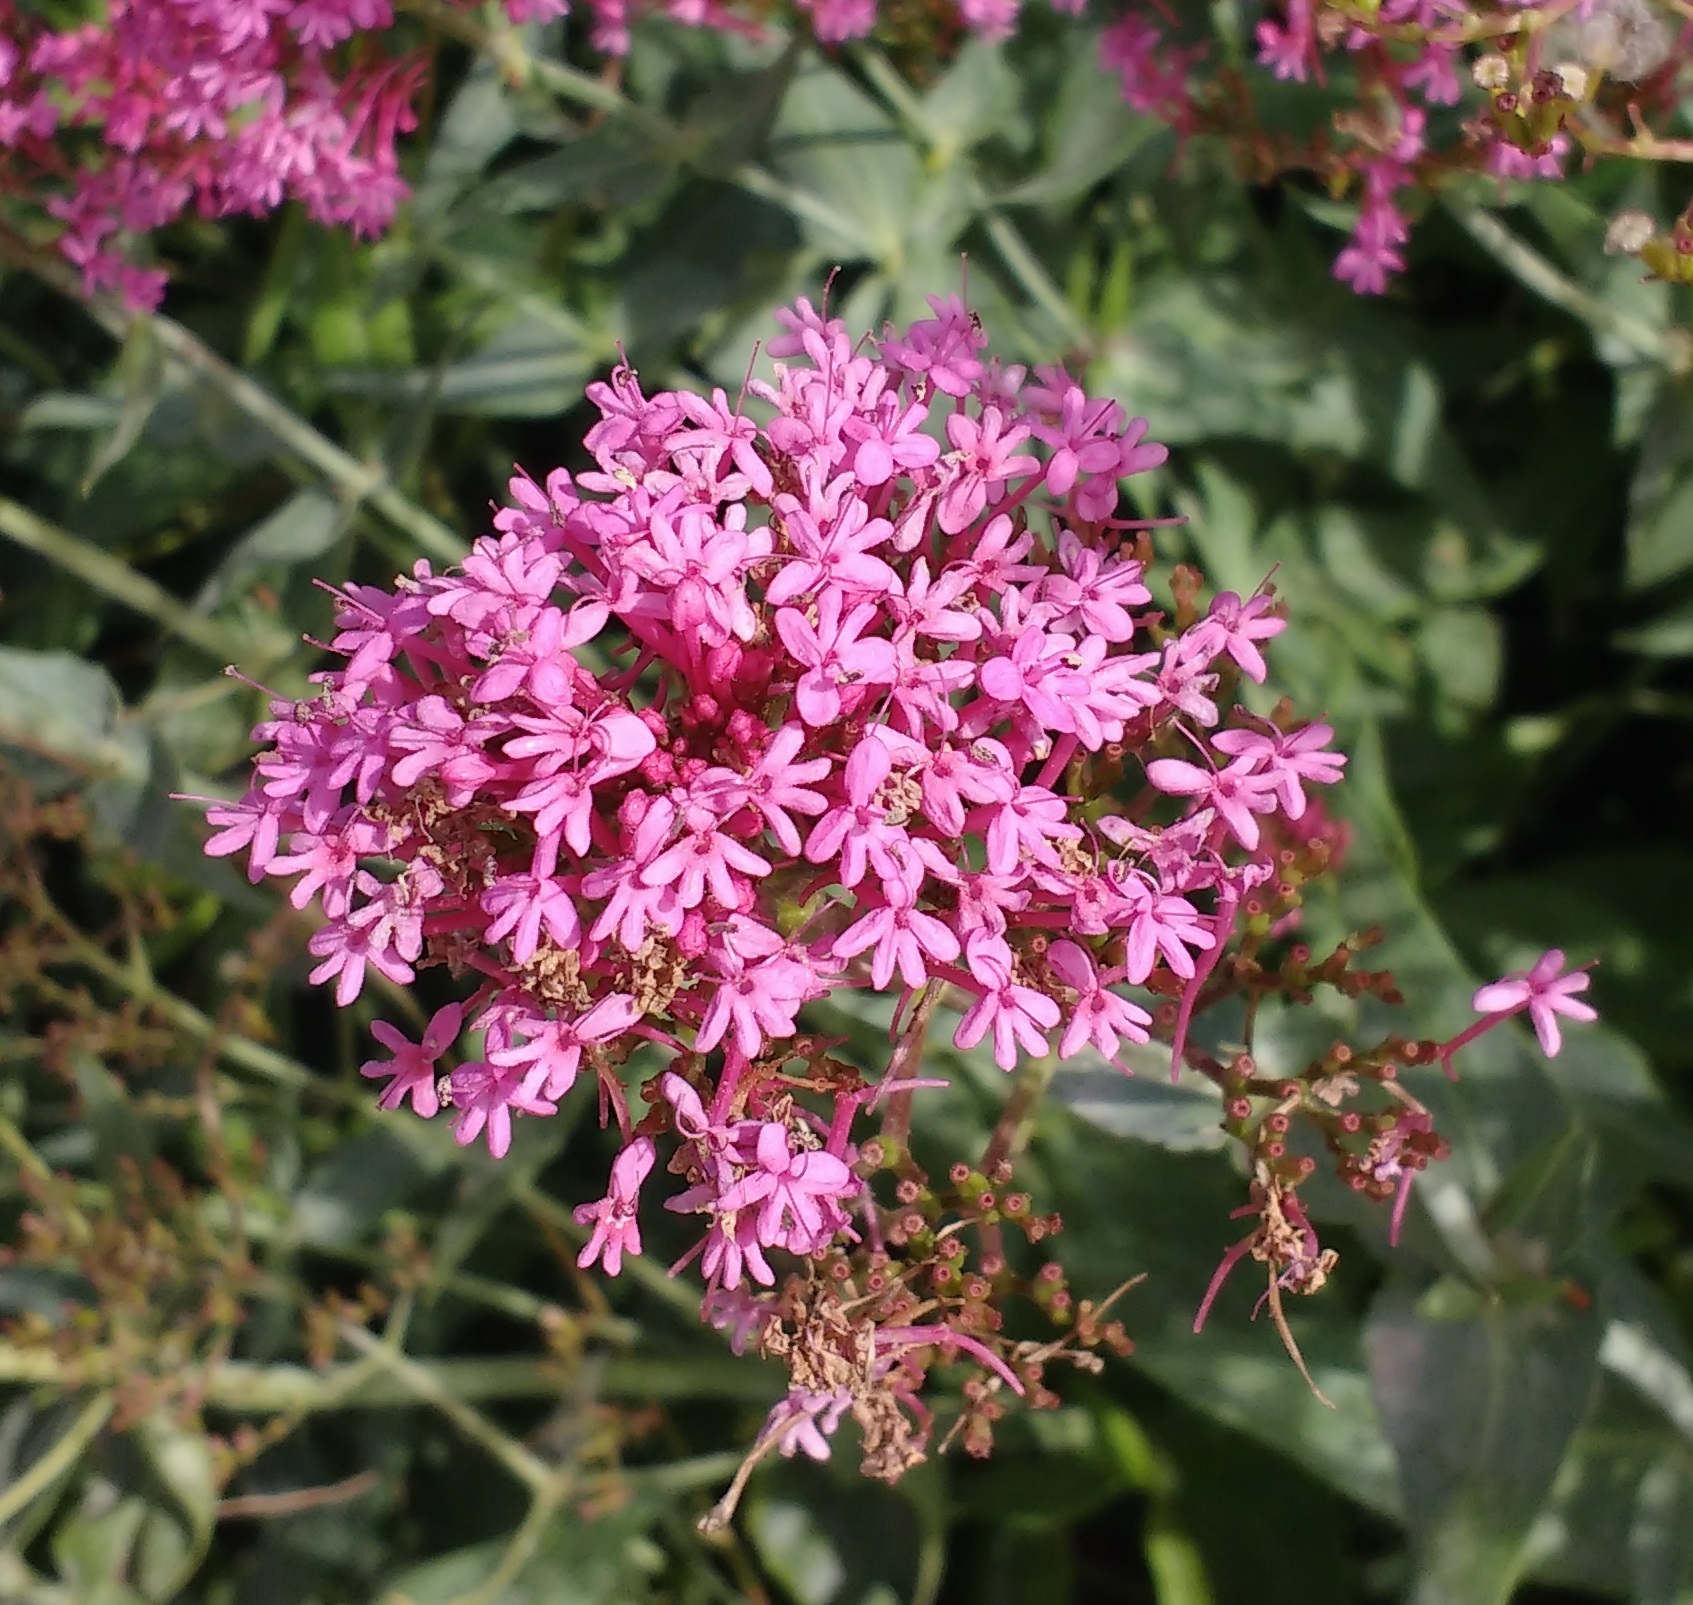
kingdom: Plantae
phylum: Tracheophyta
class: Magnoliopsida
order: Dipsacales
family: Caprifoliaceae
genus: Centranthus
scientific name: Centranthus ruber
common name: Red valerian
